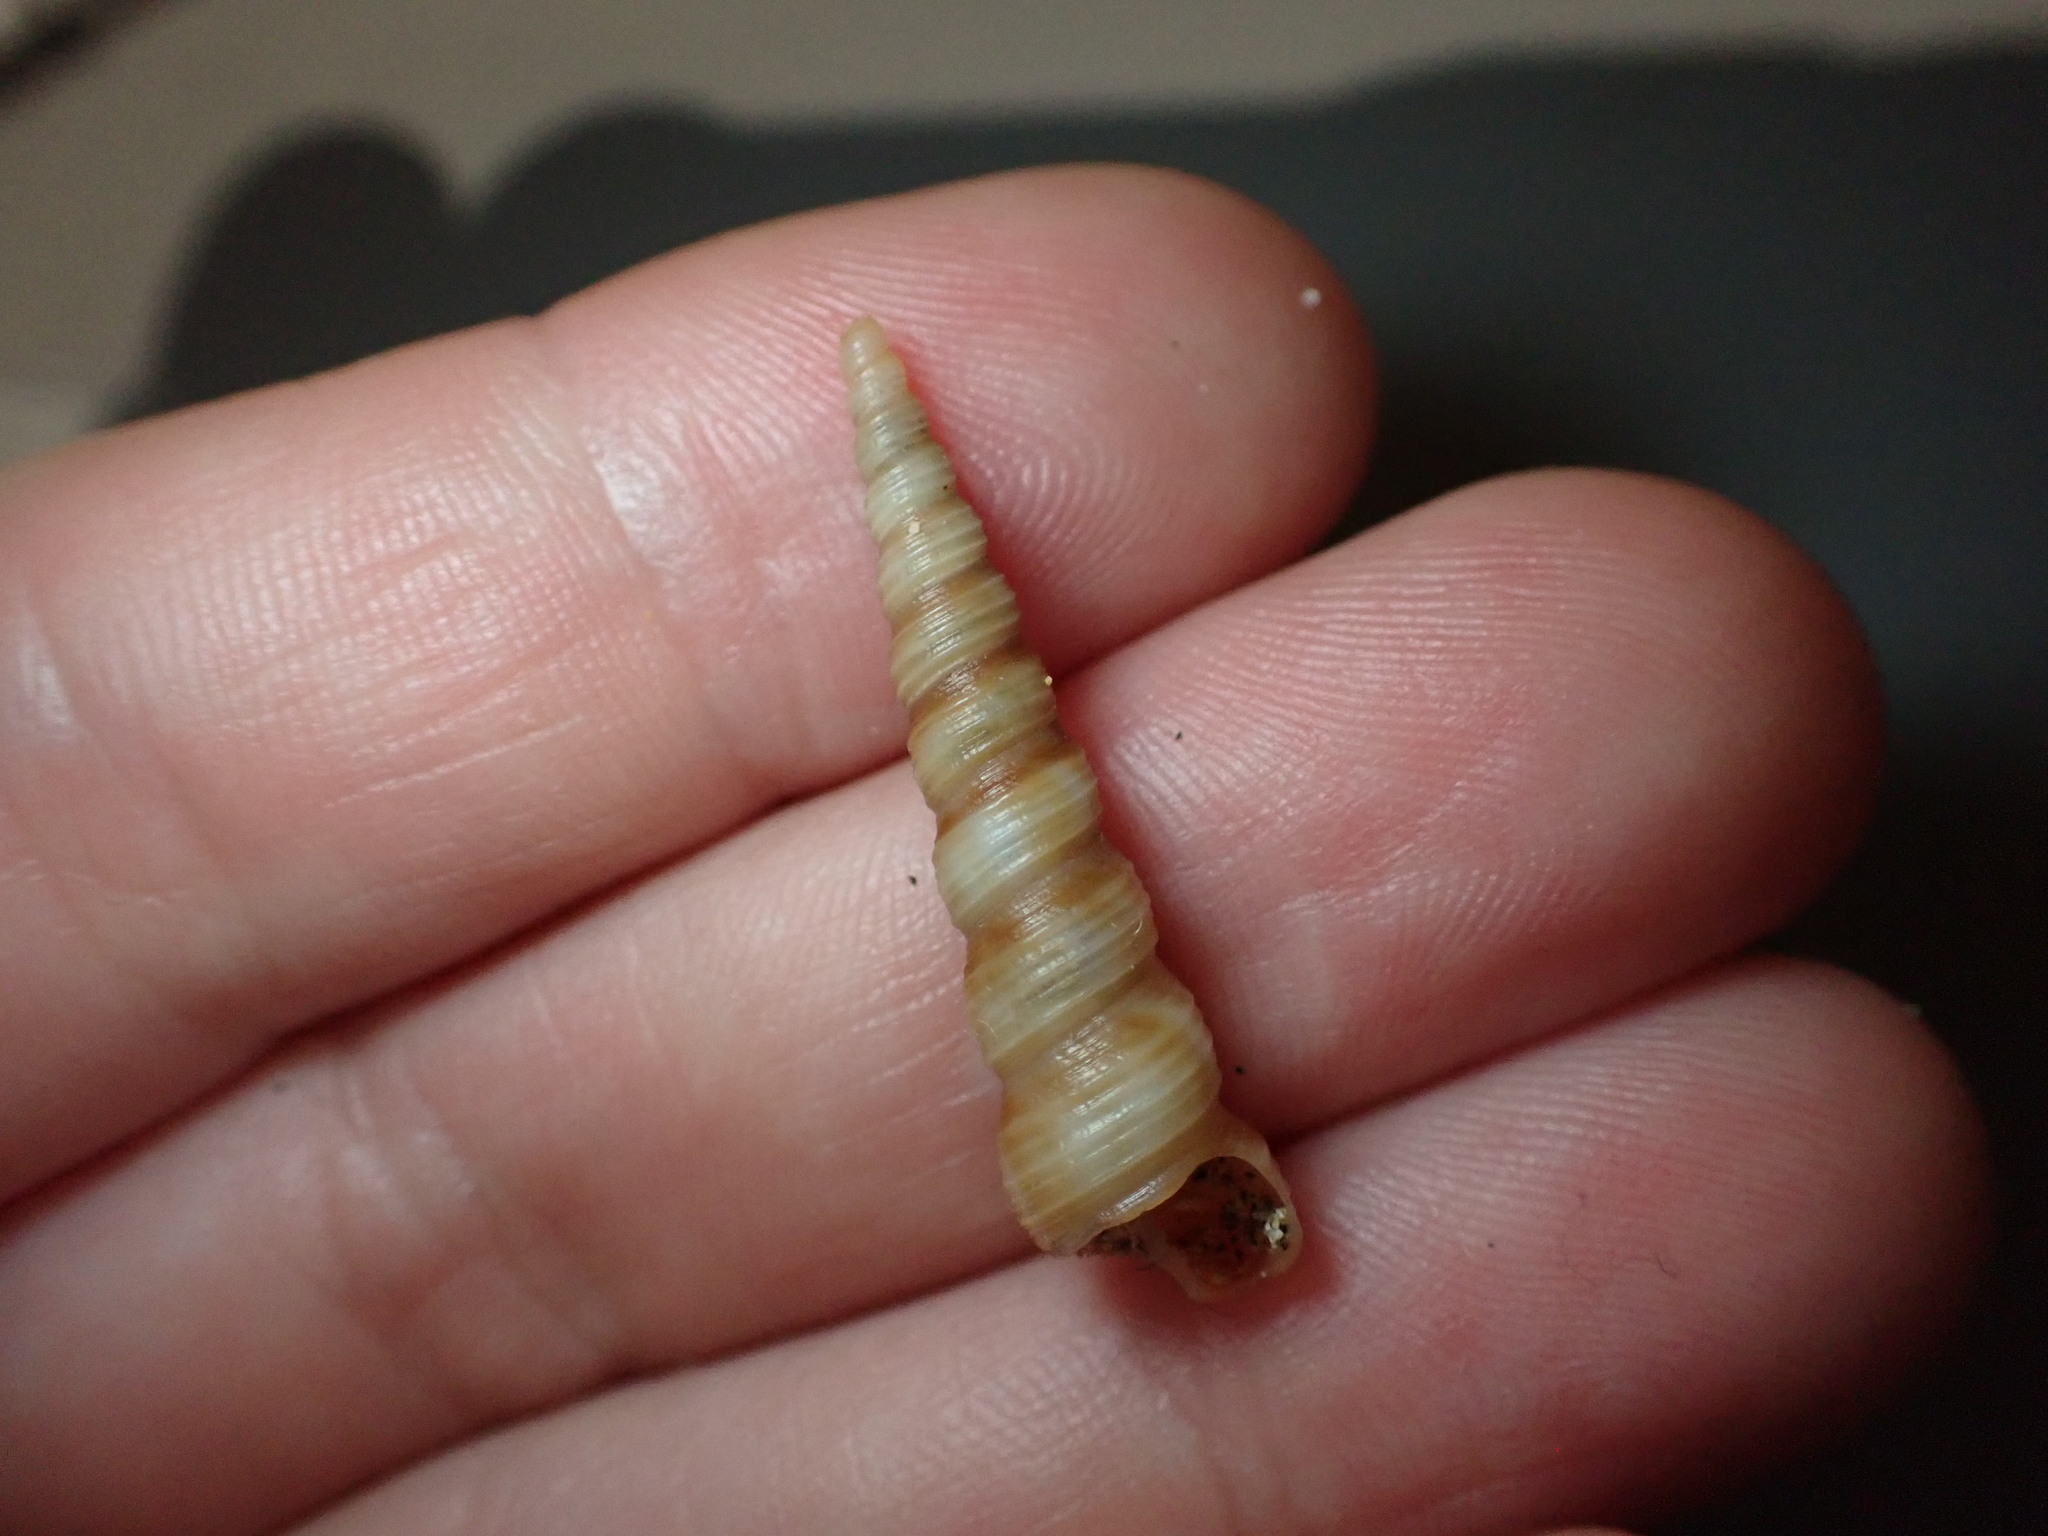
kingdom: Animalia
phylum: Mollusca
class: Gastropoda
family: Turritellidae
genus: Turritellinella
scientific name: Turritellinella tricarinata
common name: Auger shell
